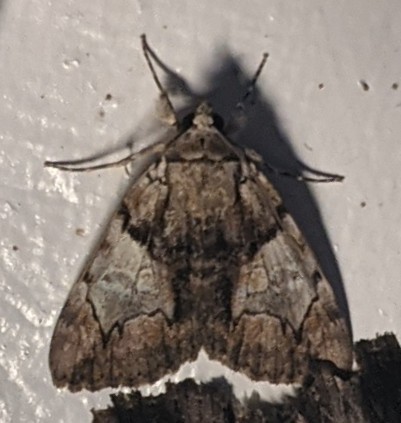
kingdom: Animalia
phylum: Arthropoda
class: Insecta
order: Lepidoptera
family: Erebidae
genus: Catocala
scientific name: Catocala blandula
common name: Charming underwing
